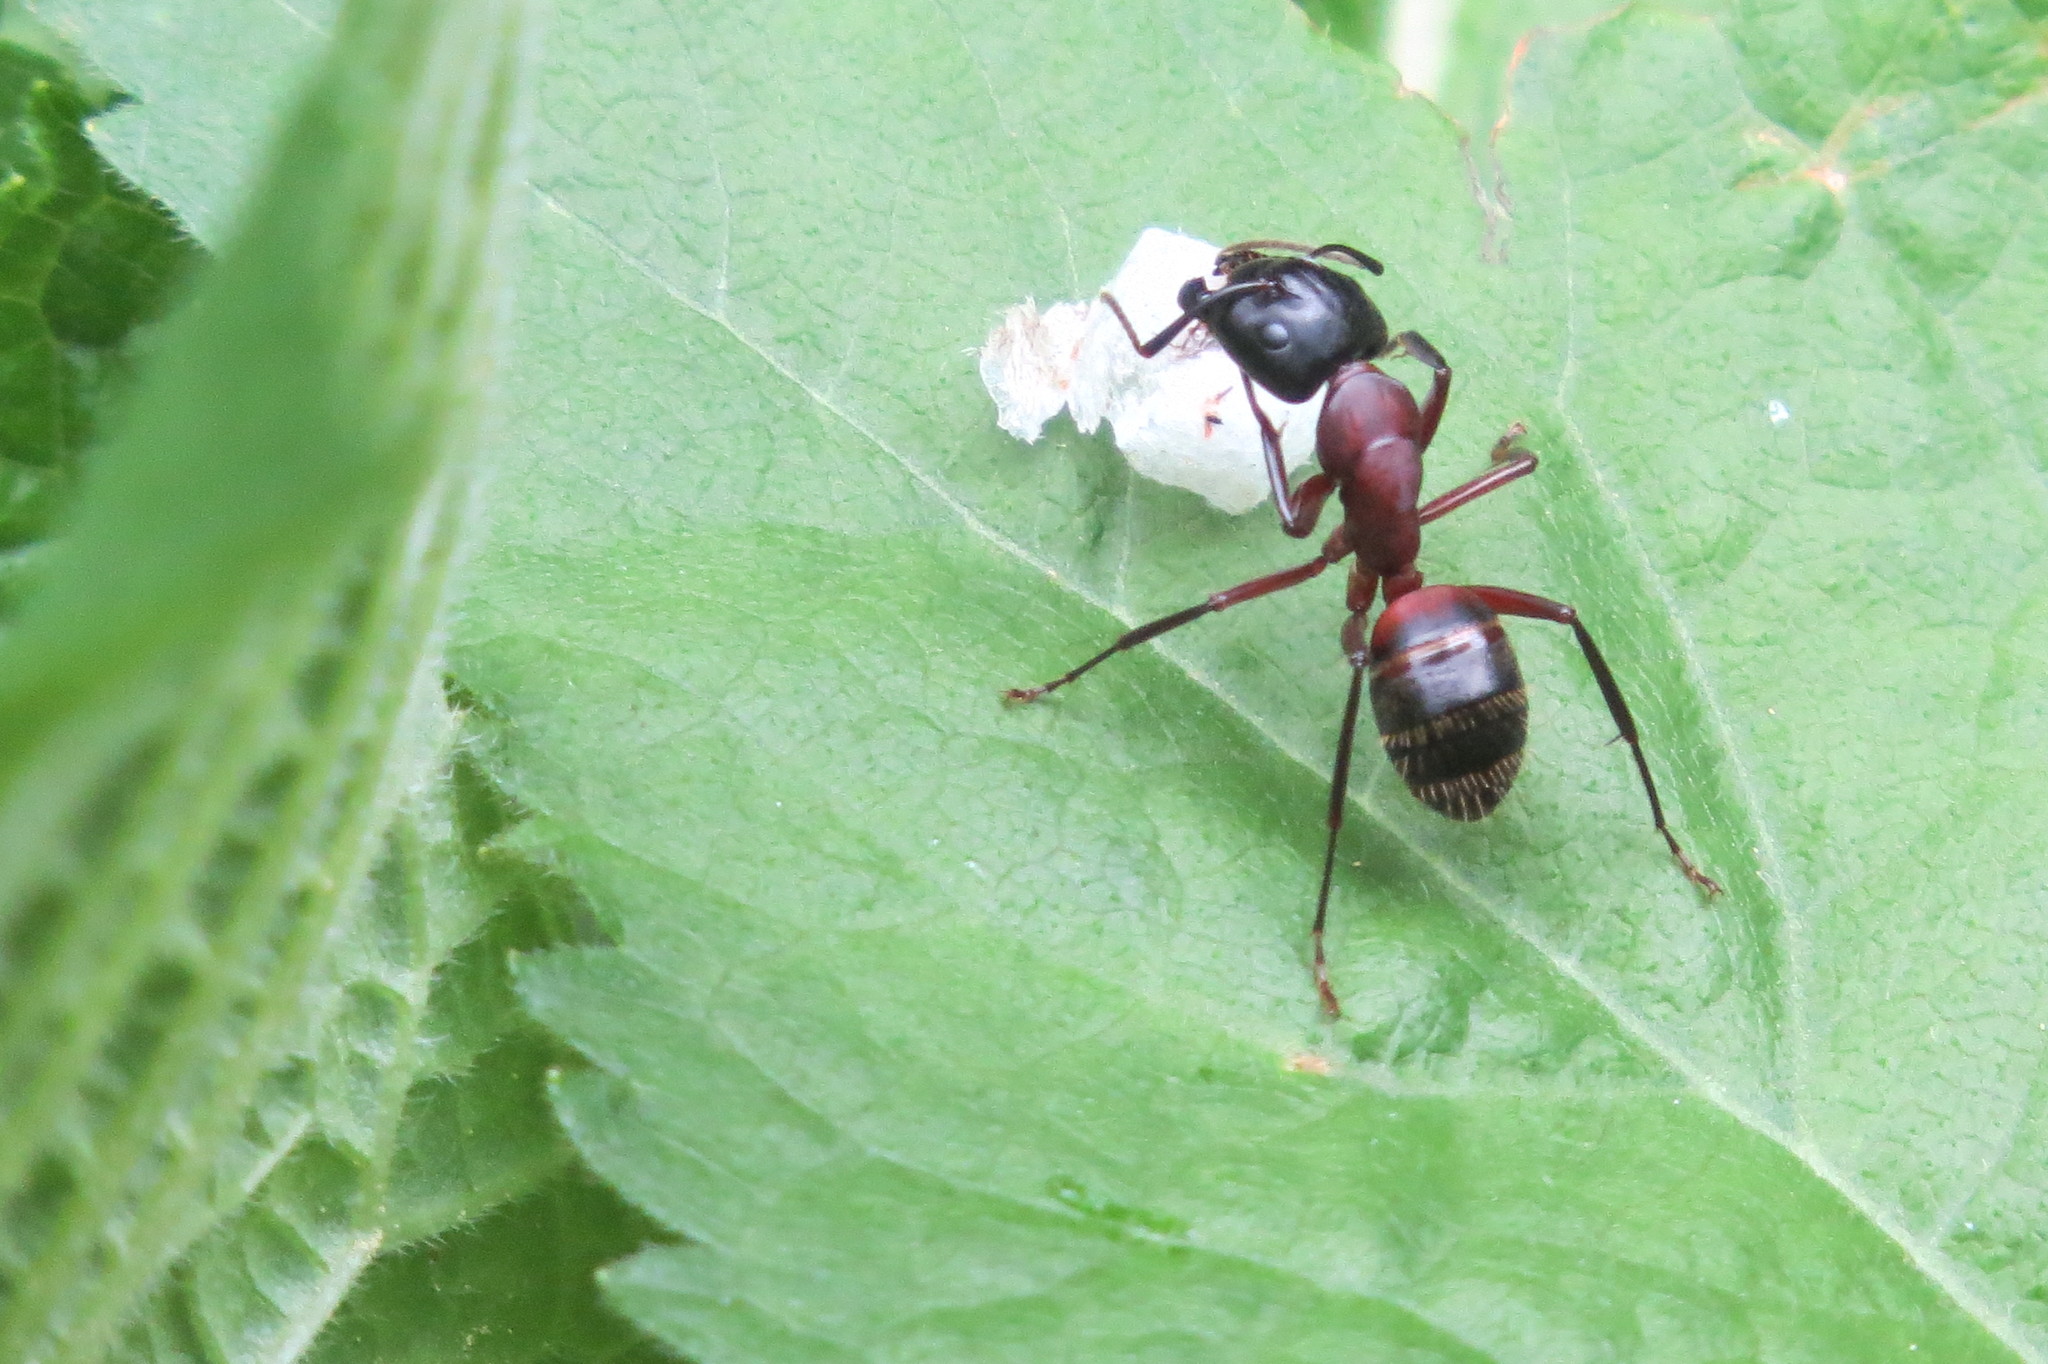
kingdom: Animalia
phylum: Arthropoda
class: Insecta
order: Hymenoptera
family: Formicidae
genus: Camponotus
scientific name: Camponotus ligniperdus
